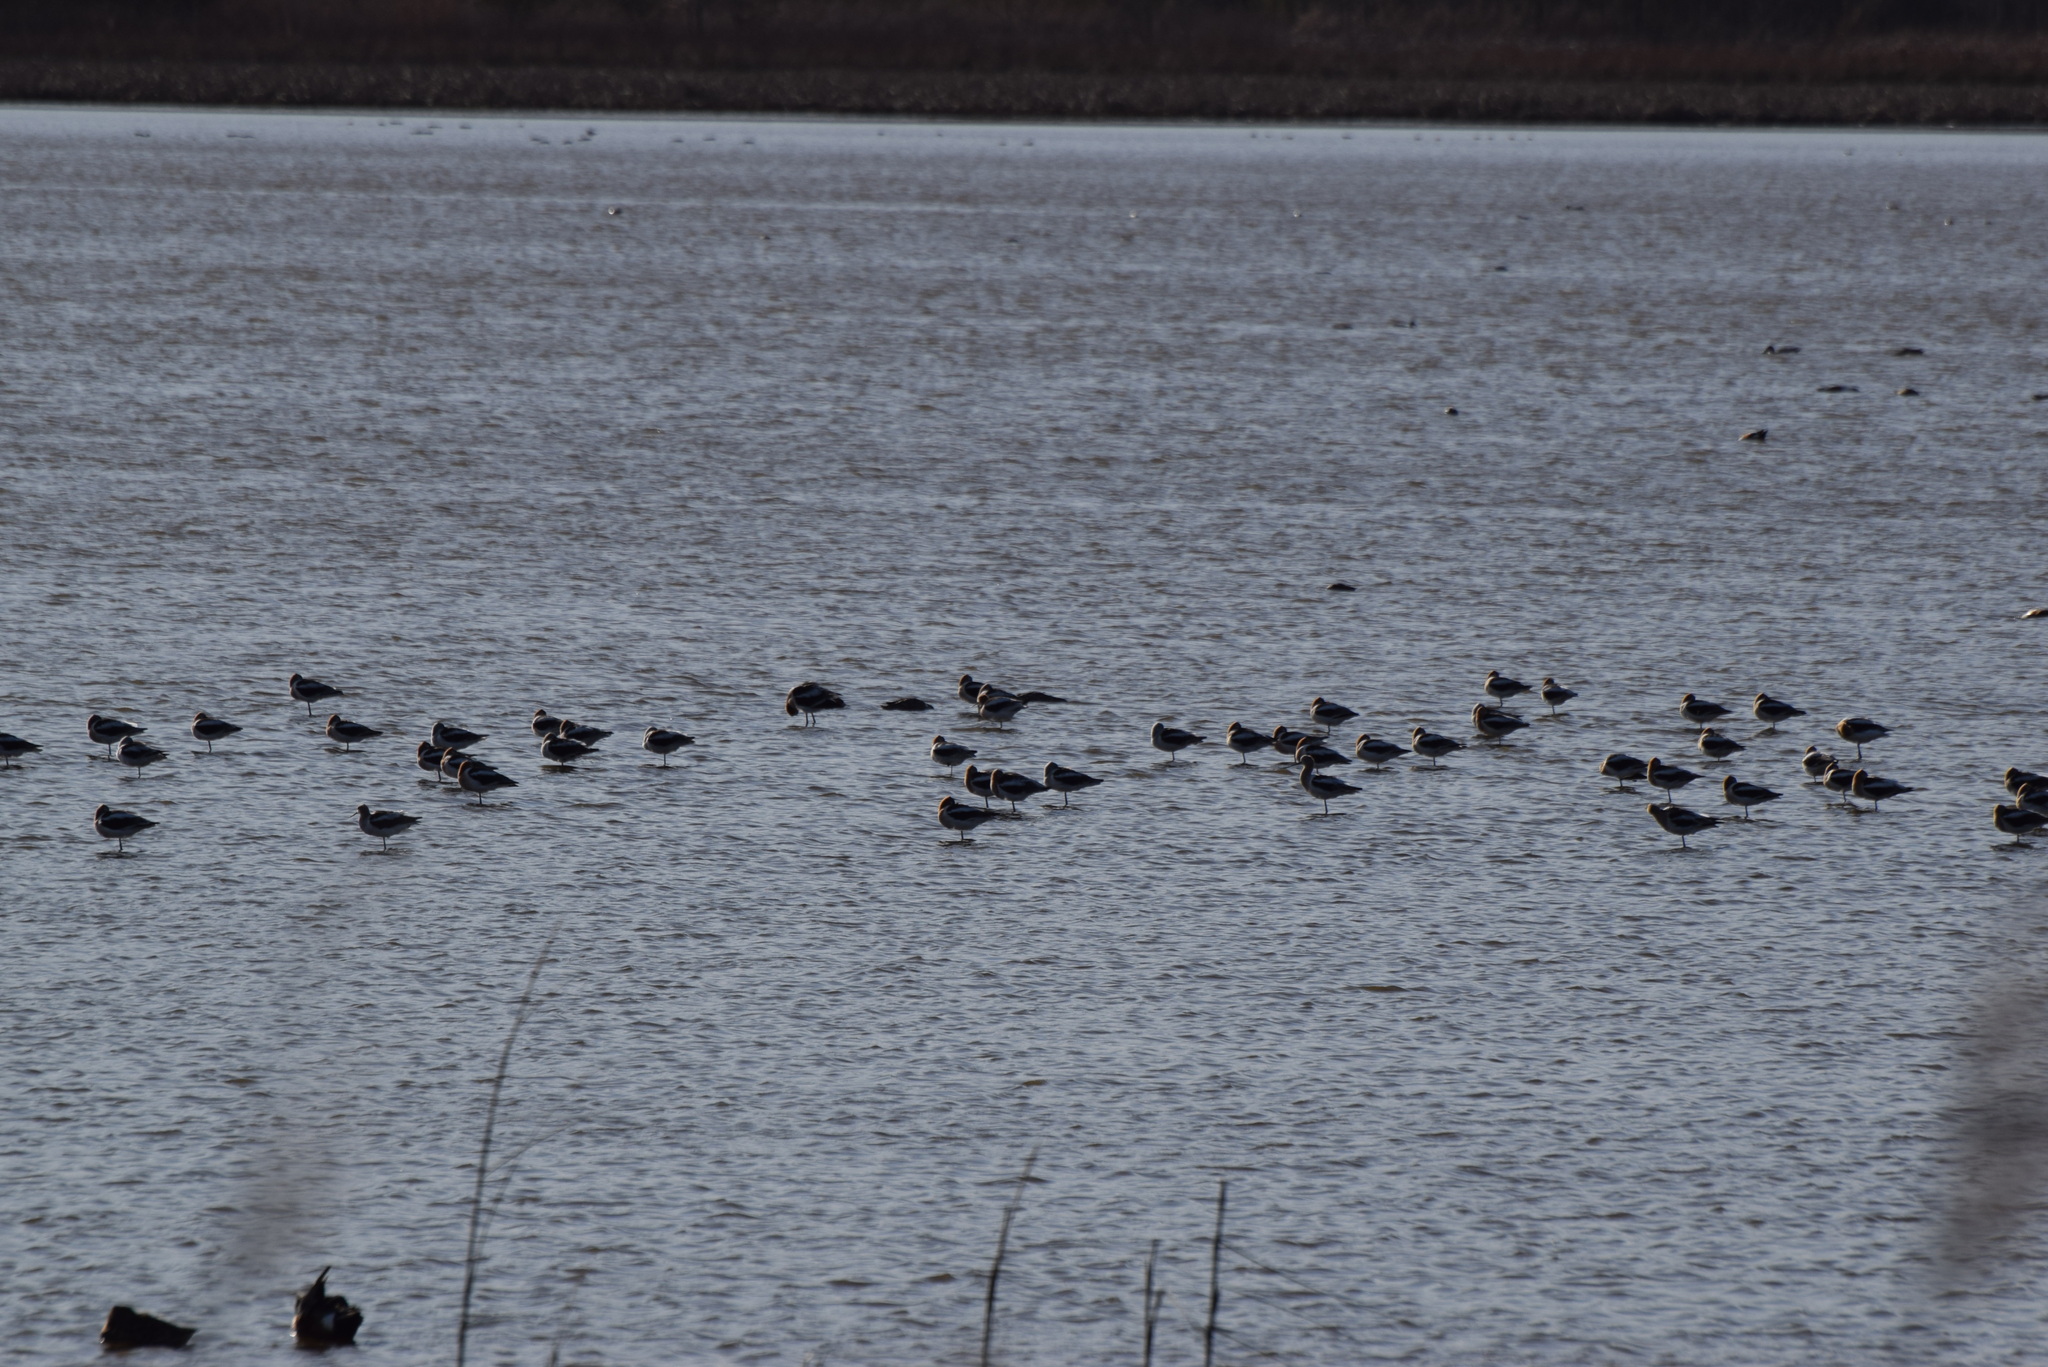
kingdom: Animalia
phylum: Chordata
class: Aves
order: Charadriiformes
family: Recurvirostridae
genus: Recurvirostra
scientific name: Recurvirostra americana
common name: American avocet
